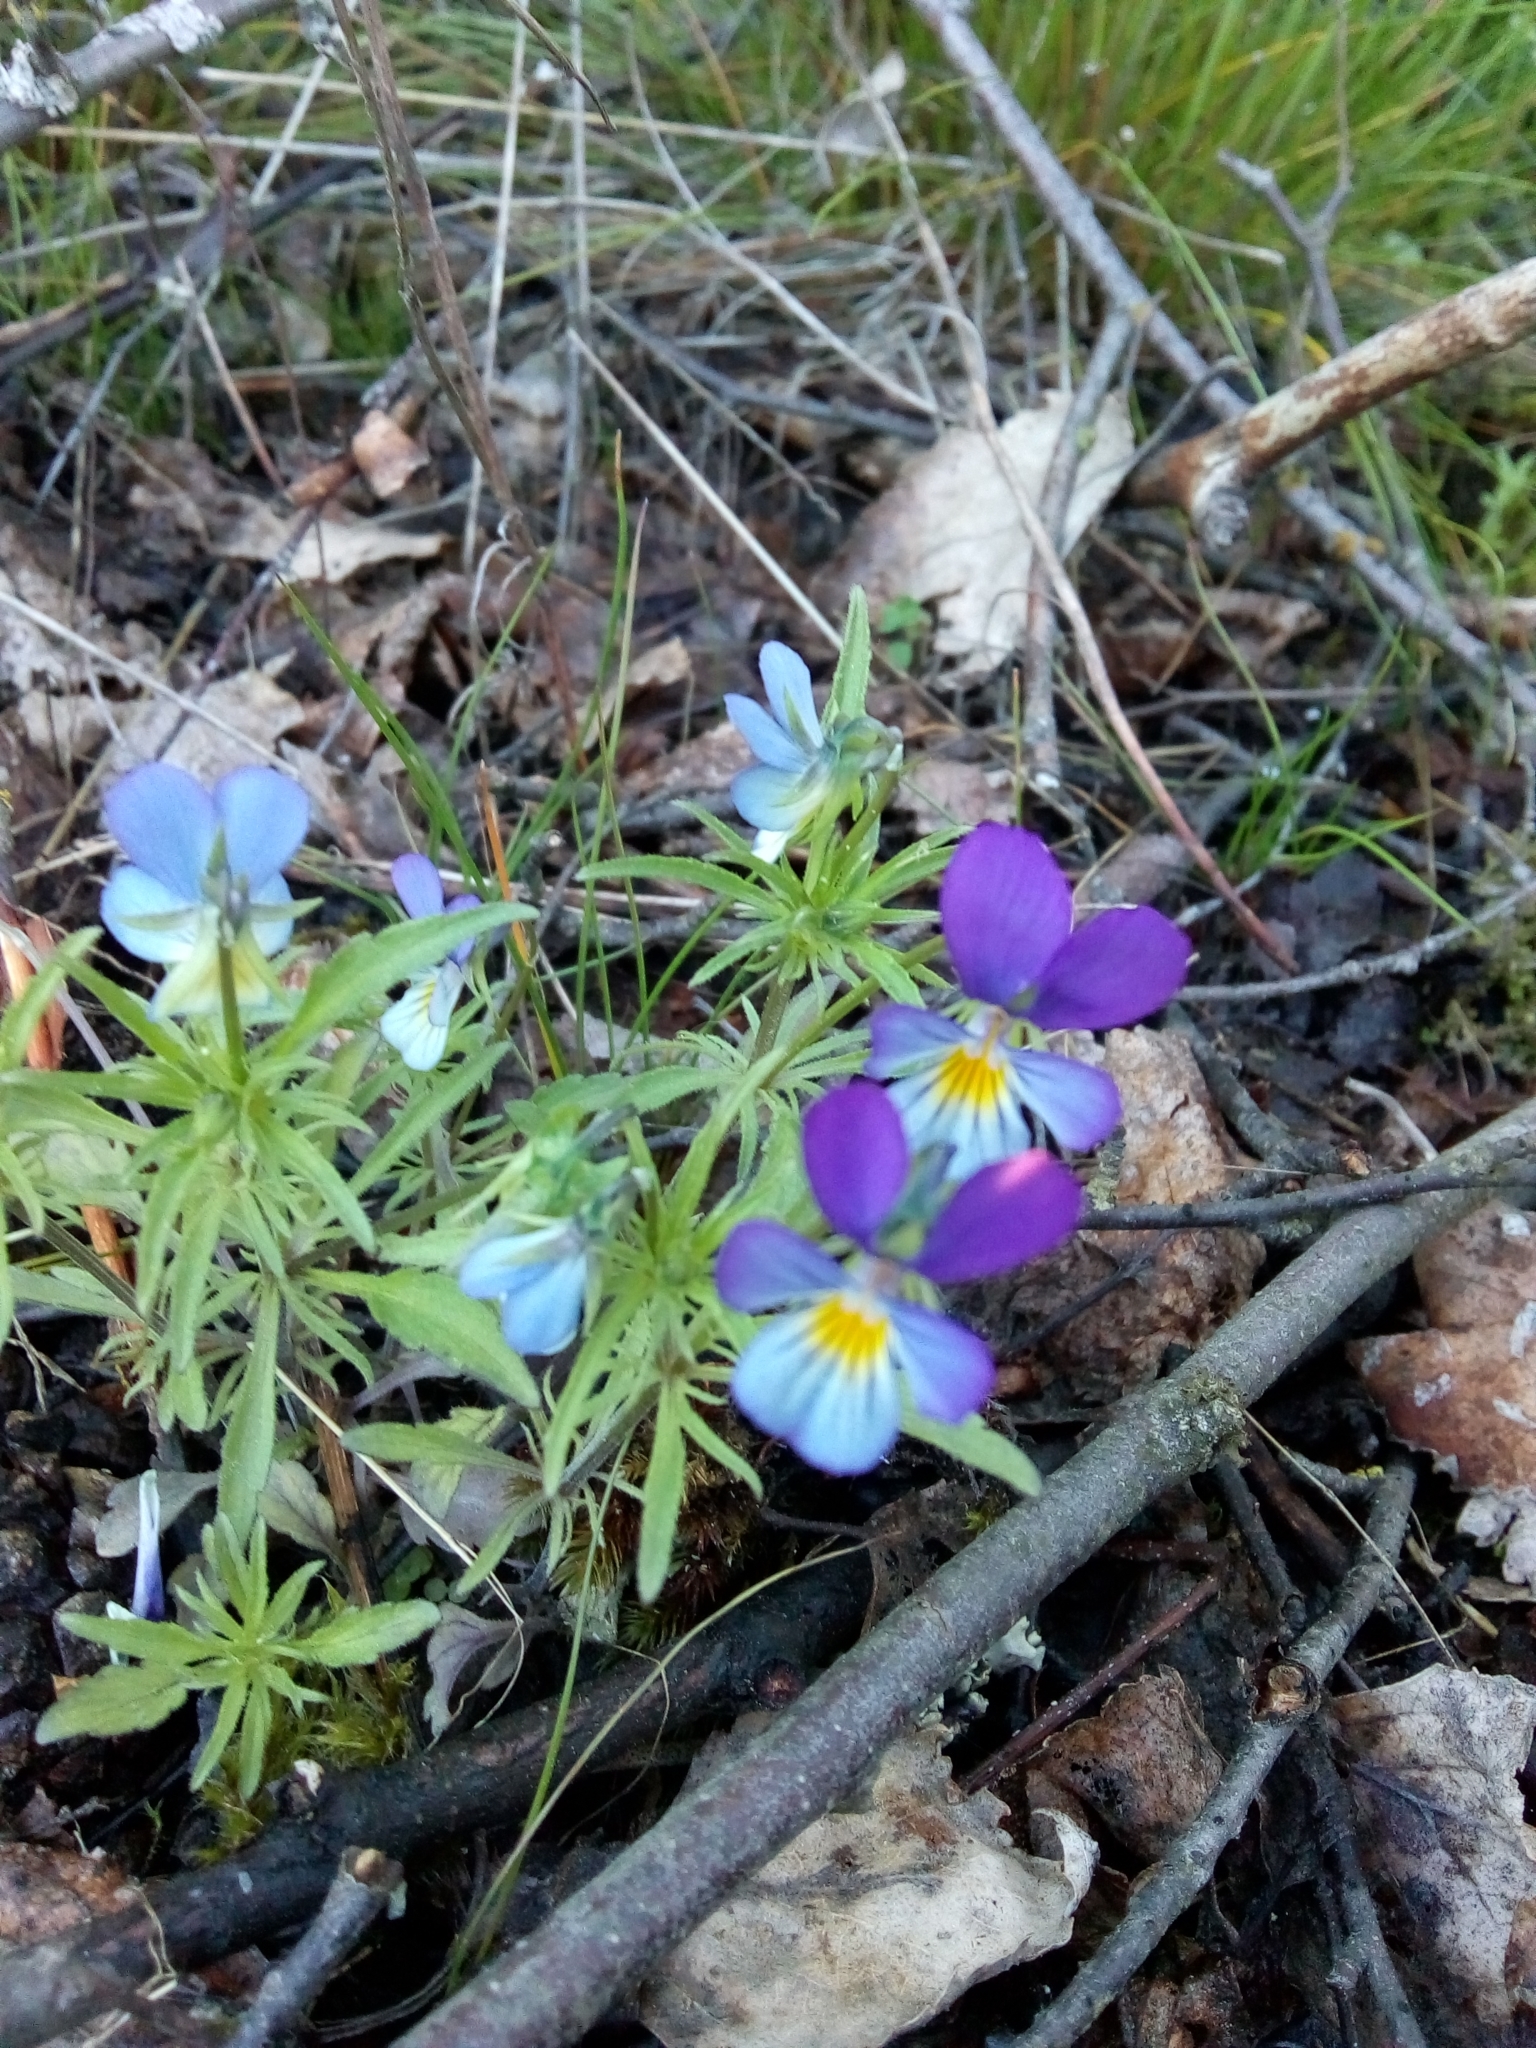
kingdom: Plantae
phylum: Tracheophyta
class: Magnoliopsida
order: Malpighiales
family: Violaceae
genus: Viola
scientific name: Viola tricolor
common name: Pansy
